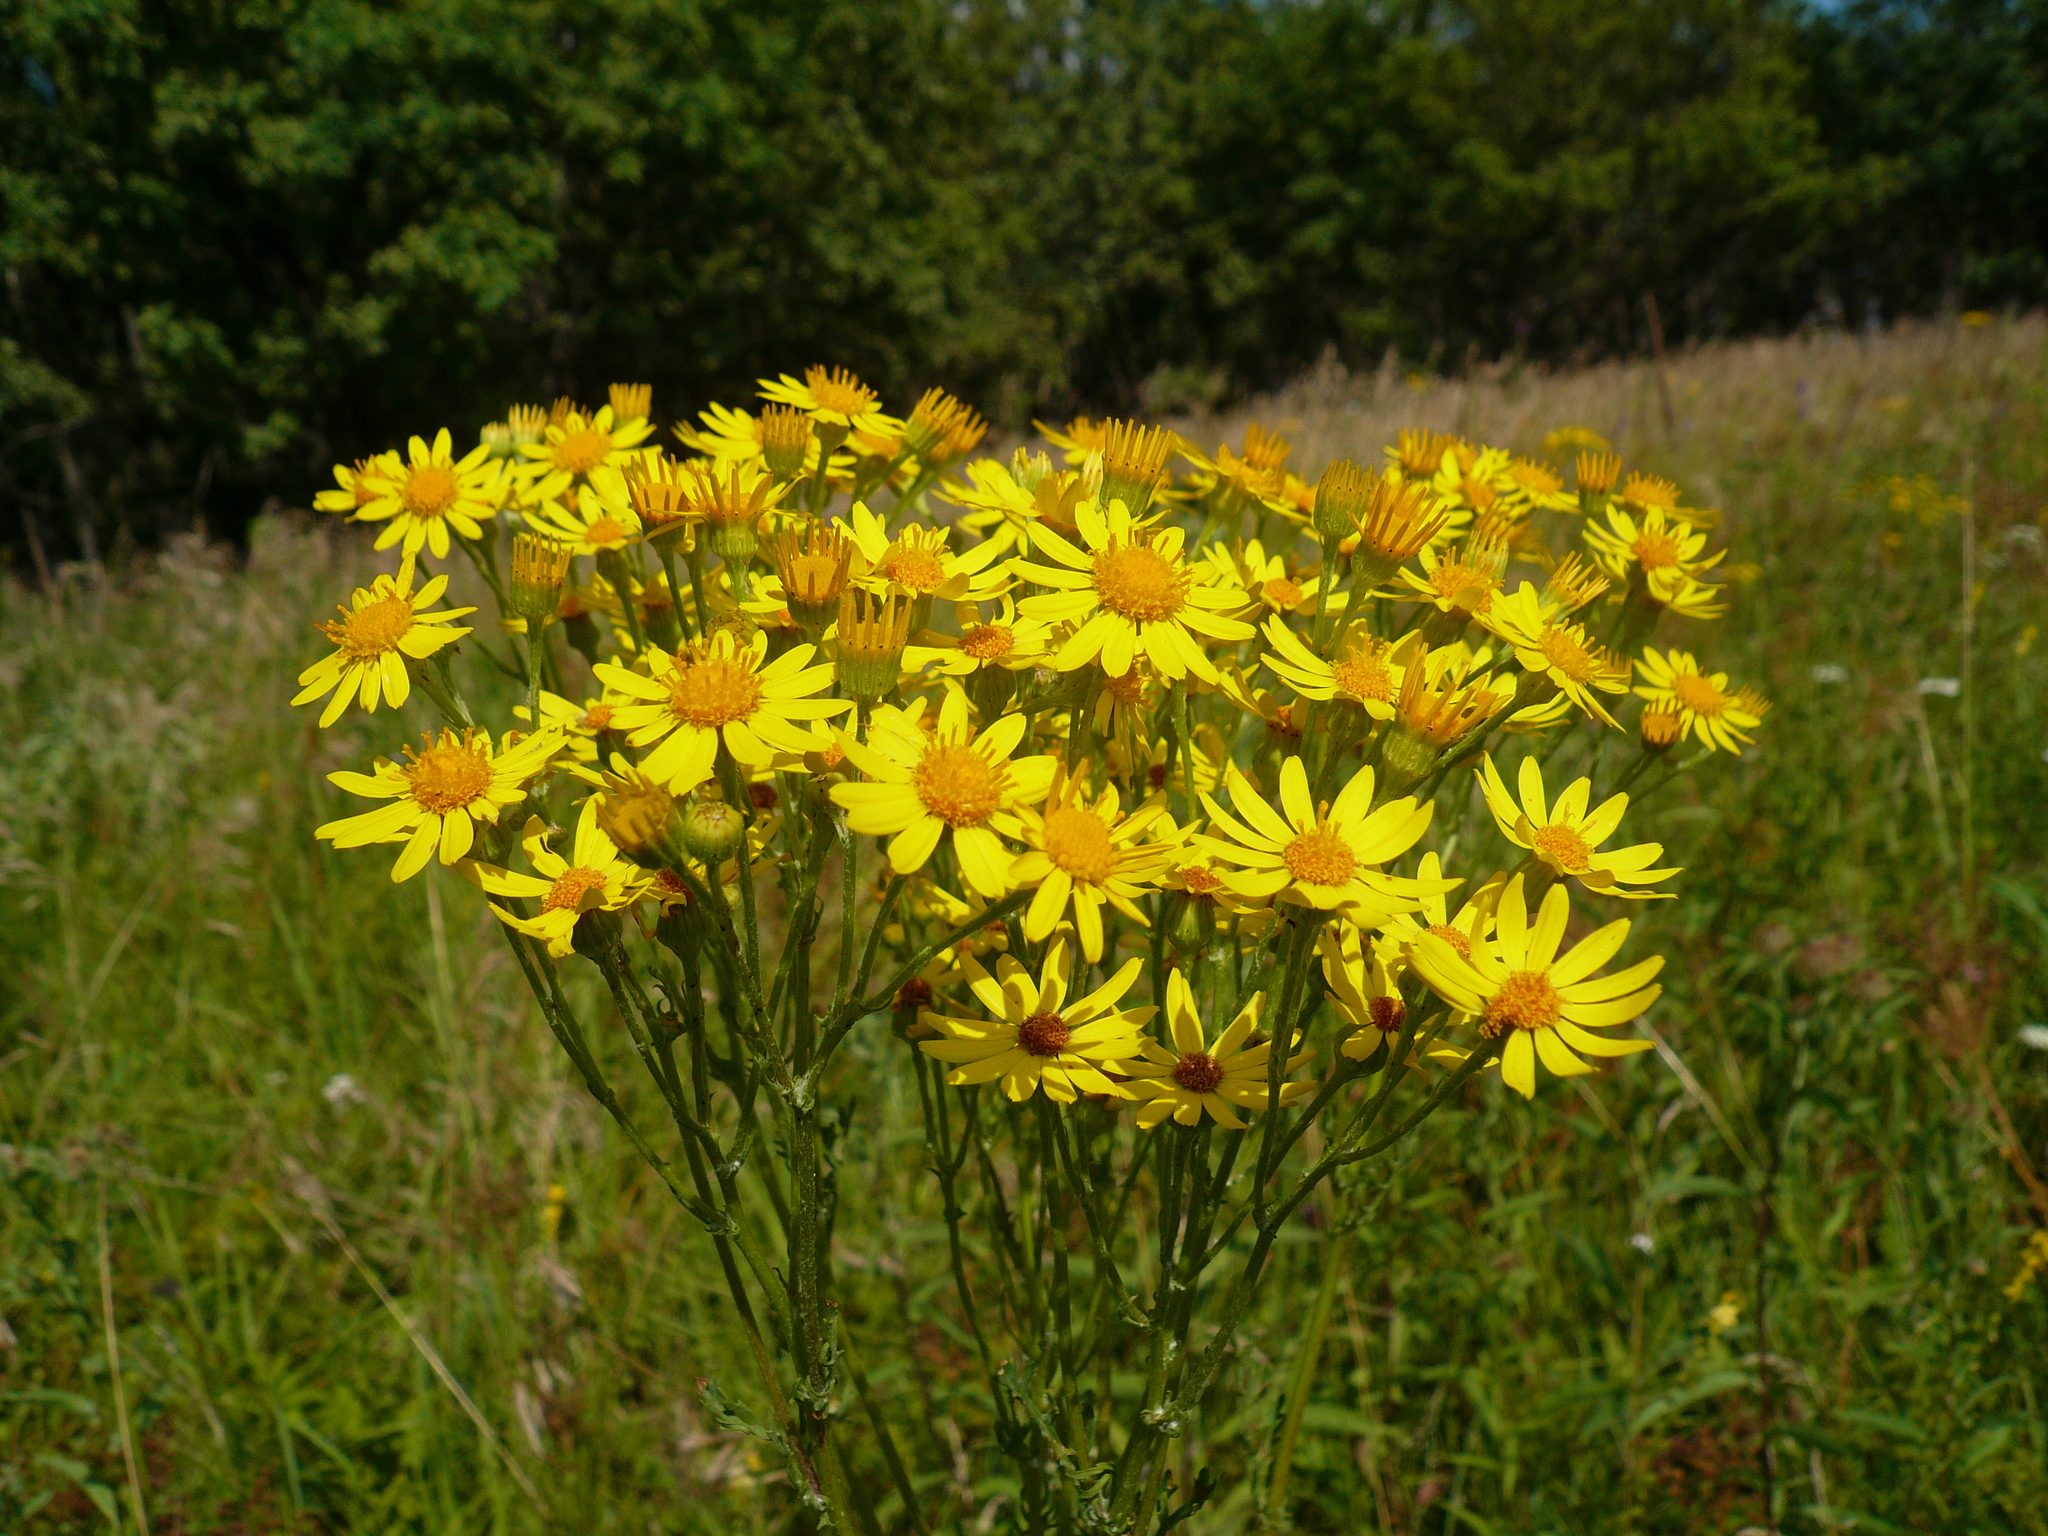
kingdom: Plantae
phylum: Tracheophyta
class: Magnoliopsida
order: Asterales
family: Asteraceae
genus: Jacobaea
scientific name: Jacobaea vulgaris
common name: Stinking willie
